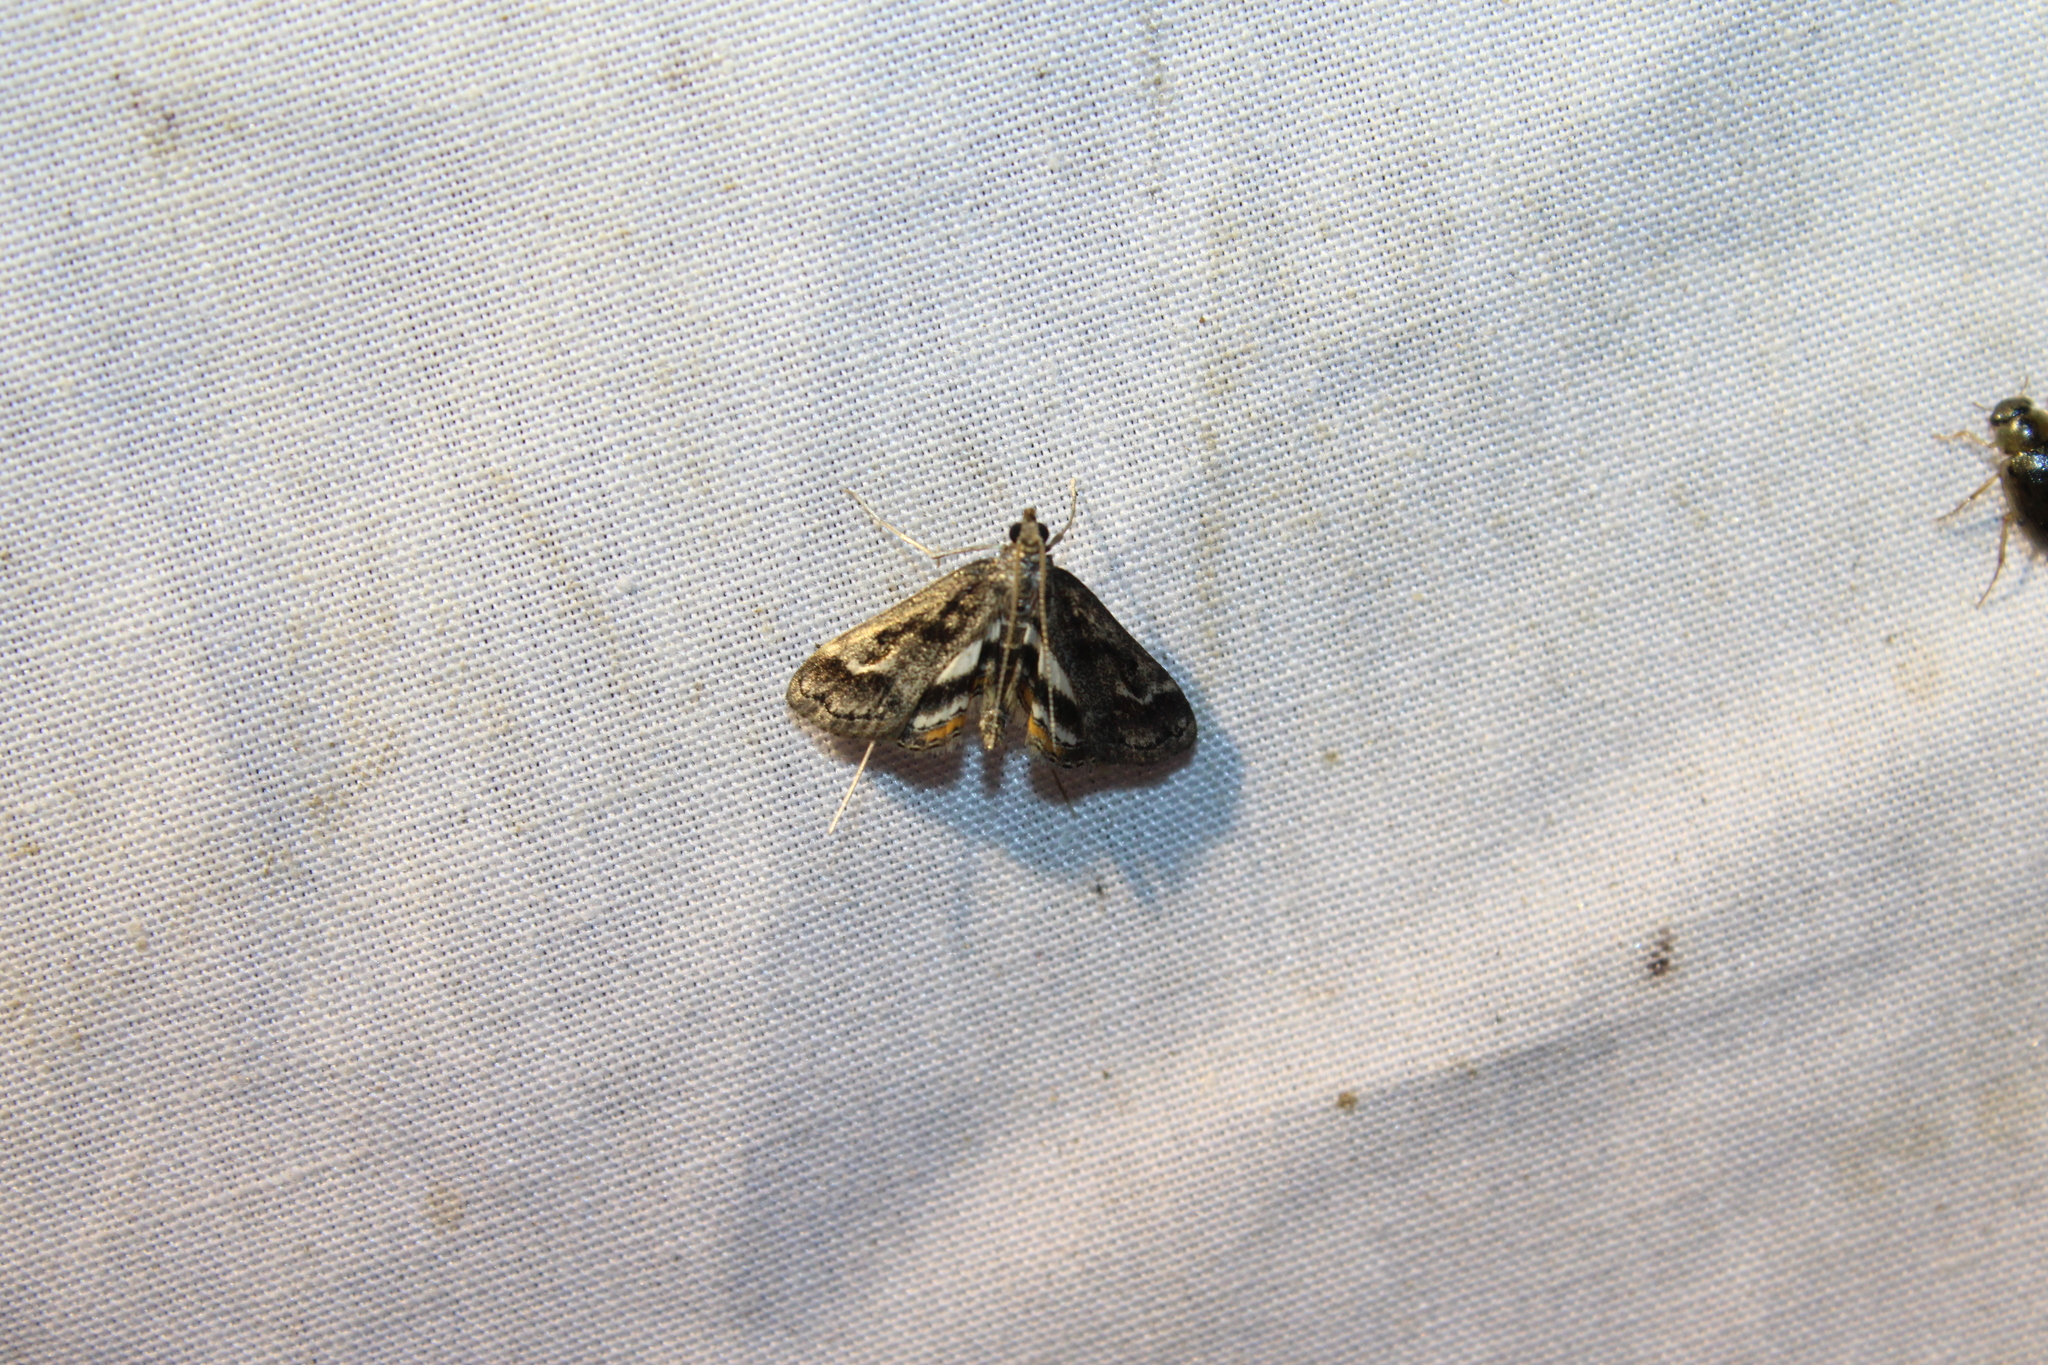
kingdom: Animalia
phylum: Arthropoda
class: Insecta
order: Lepidoptera
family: Crambidae
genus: Parapoynx
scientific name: Parapoynx obscuralis
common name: American china-mark
